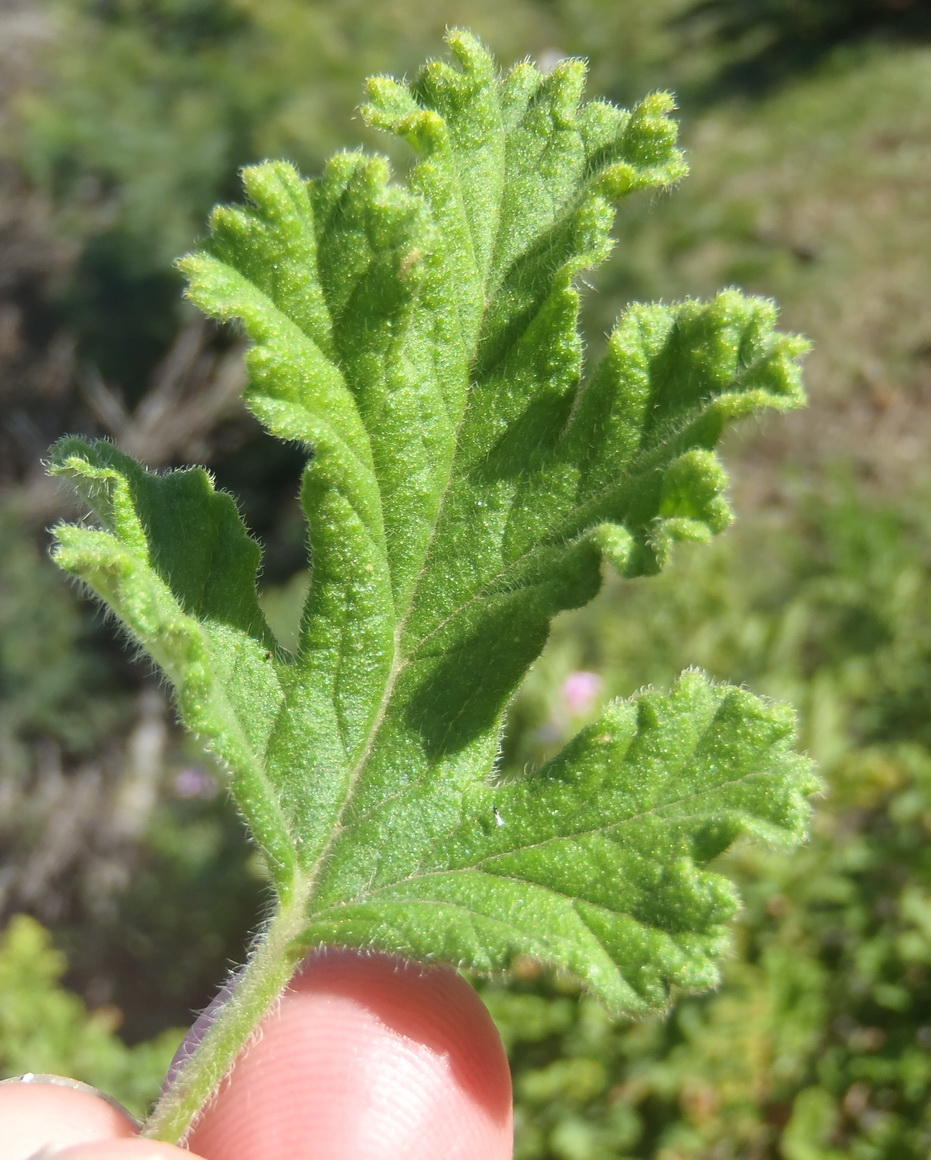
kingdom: Plantae
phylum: Tracheophyta
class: Magnoliopsida
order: Geraniales
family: Geraniaceae
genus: Pelargonium
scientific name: Pelargonium panduriforme
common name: Oakleaf garden geranium
